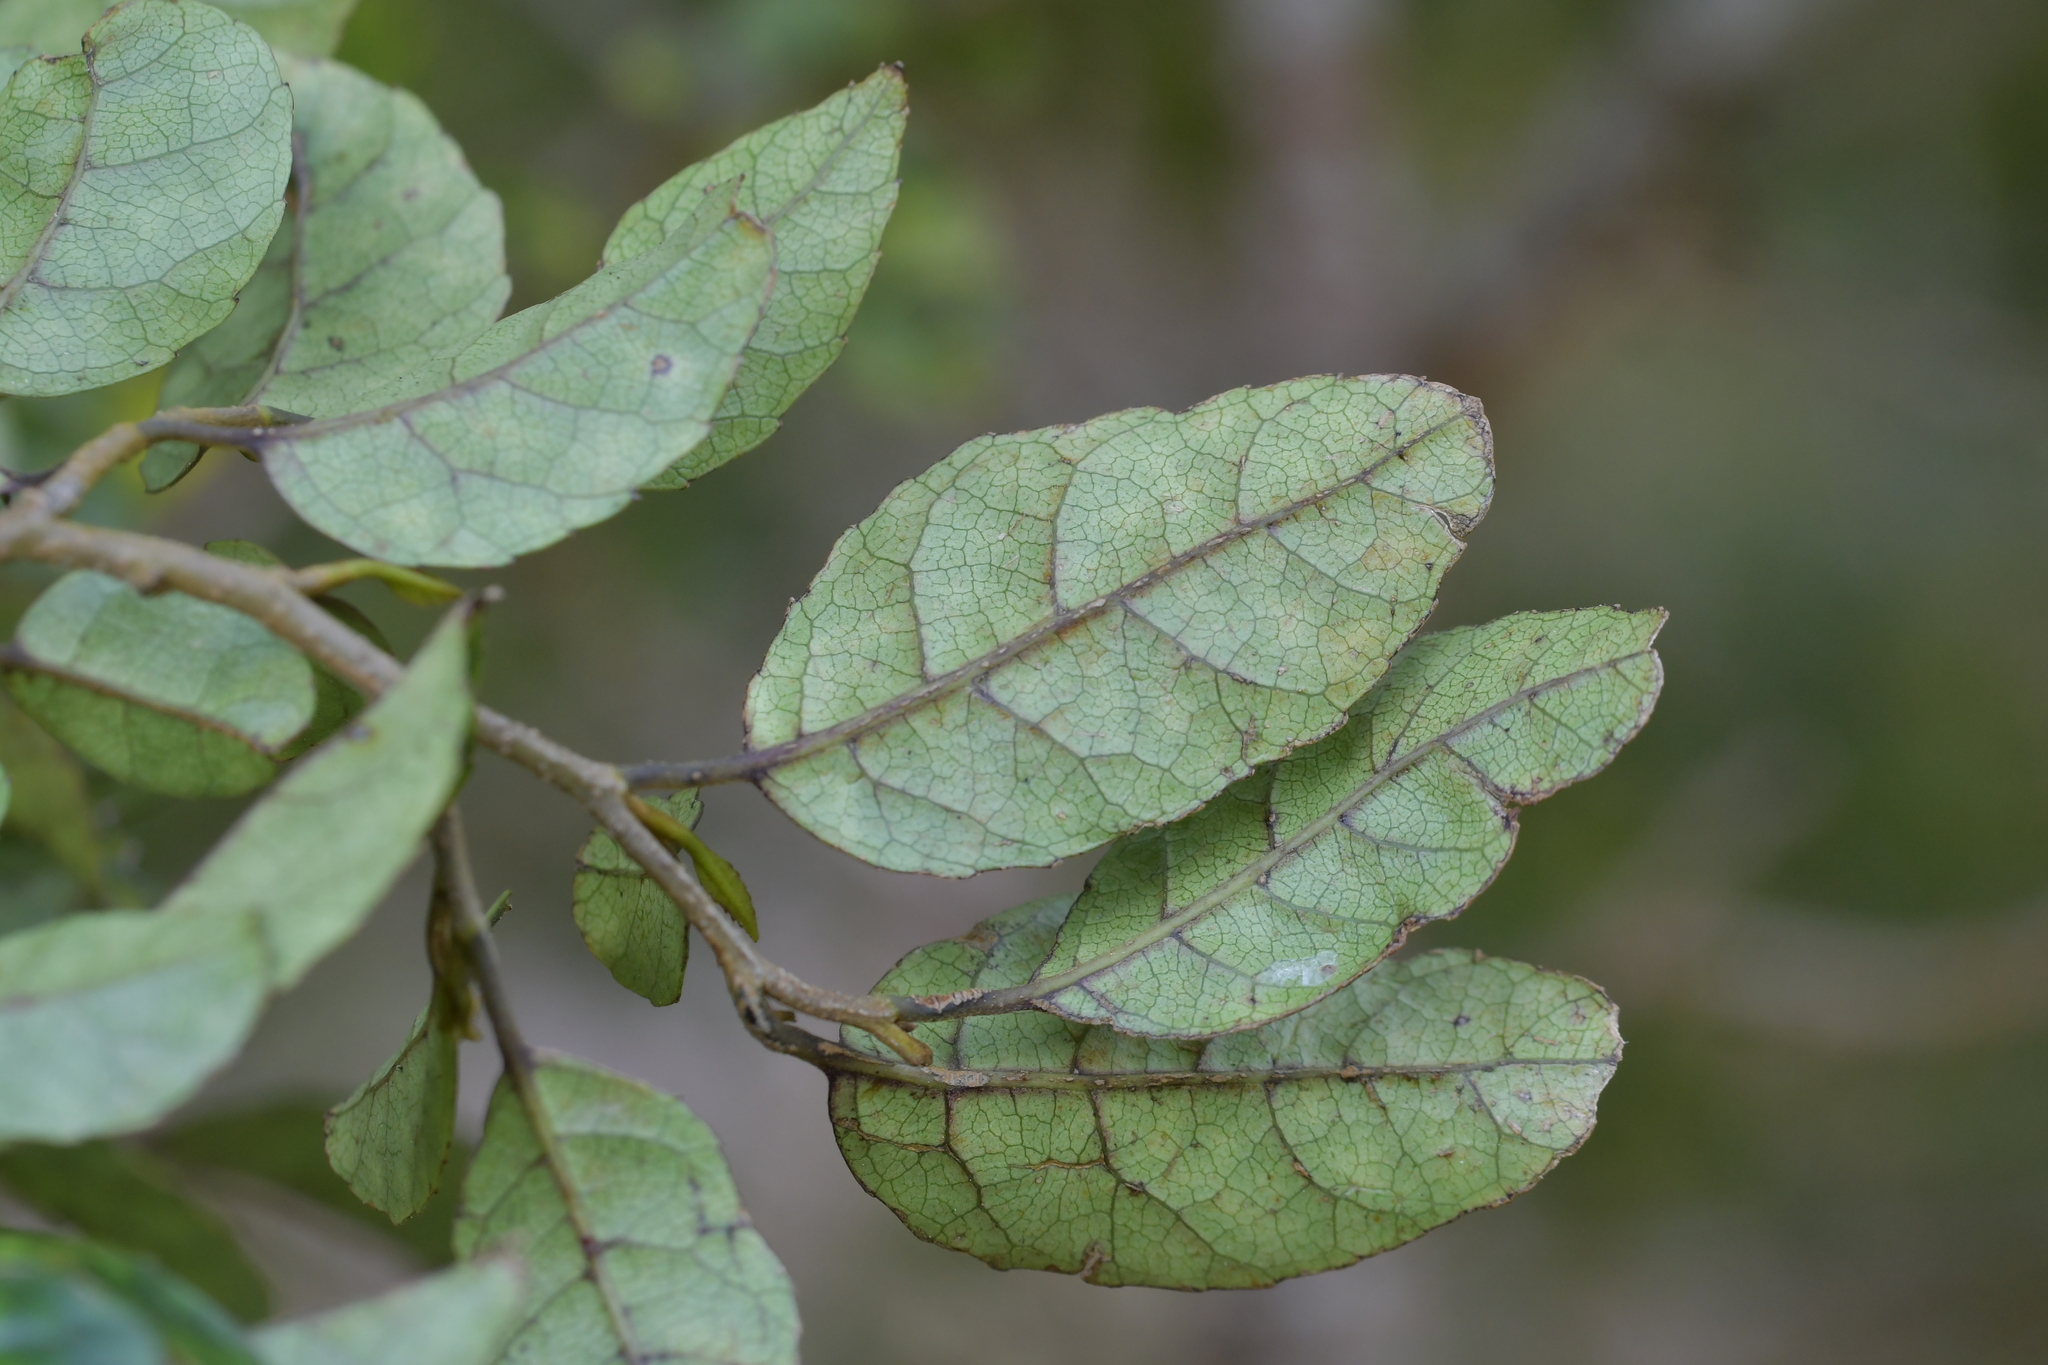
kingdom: Plantae
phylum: Tracheophyta
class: Magnoliopsida
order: Asterales
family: Rousseaceae
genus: Carpodetus
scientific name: Carpodetus serratus
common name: White mapau
